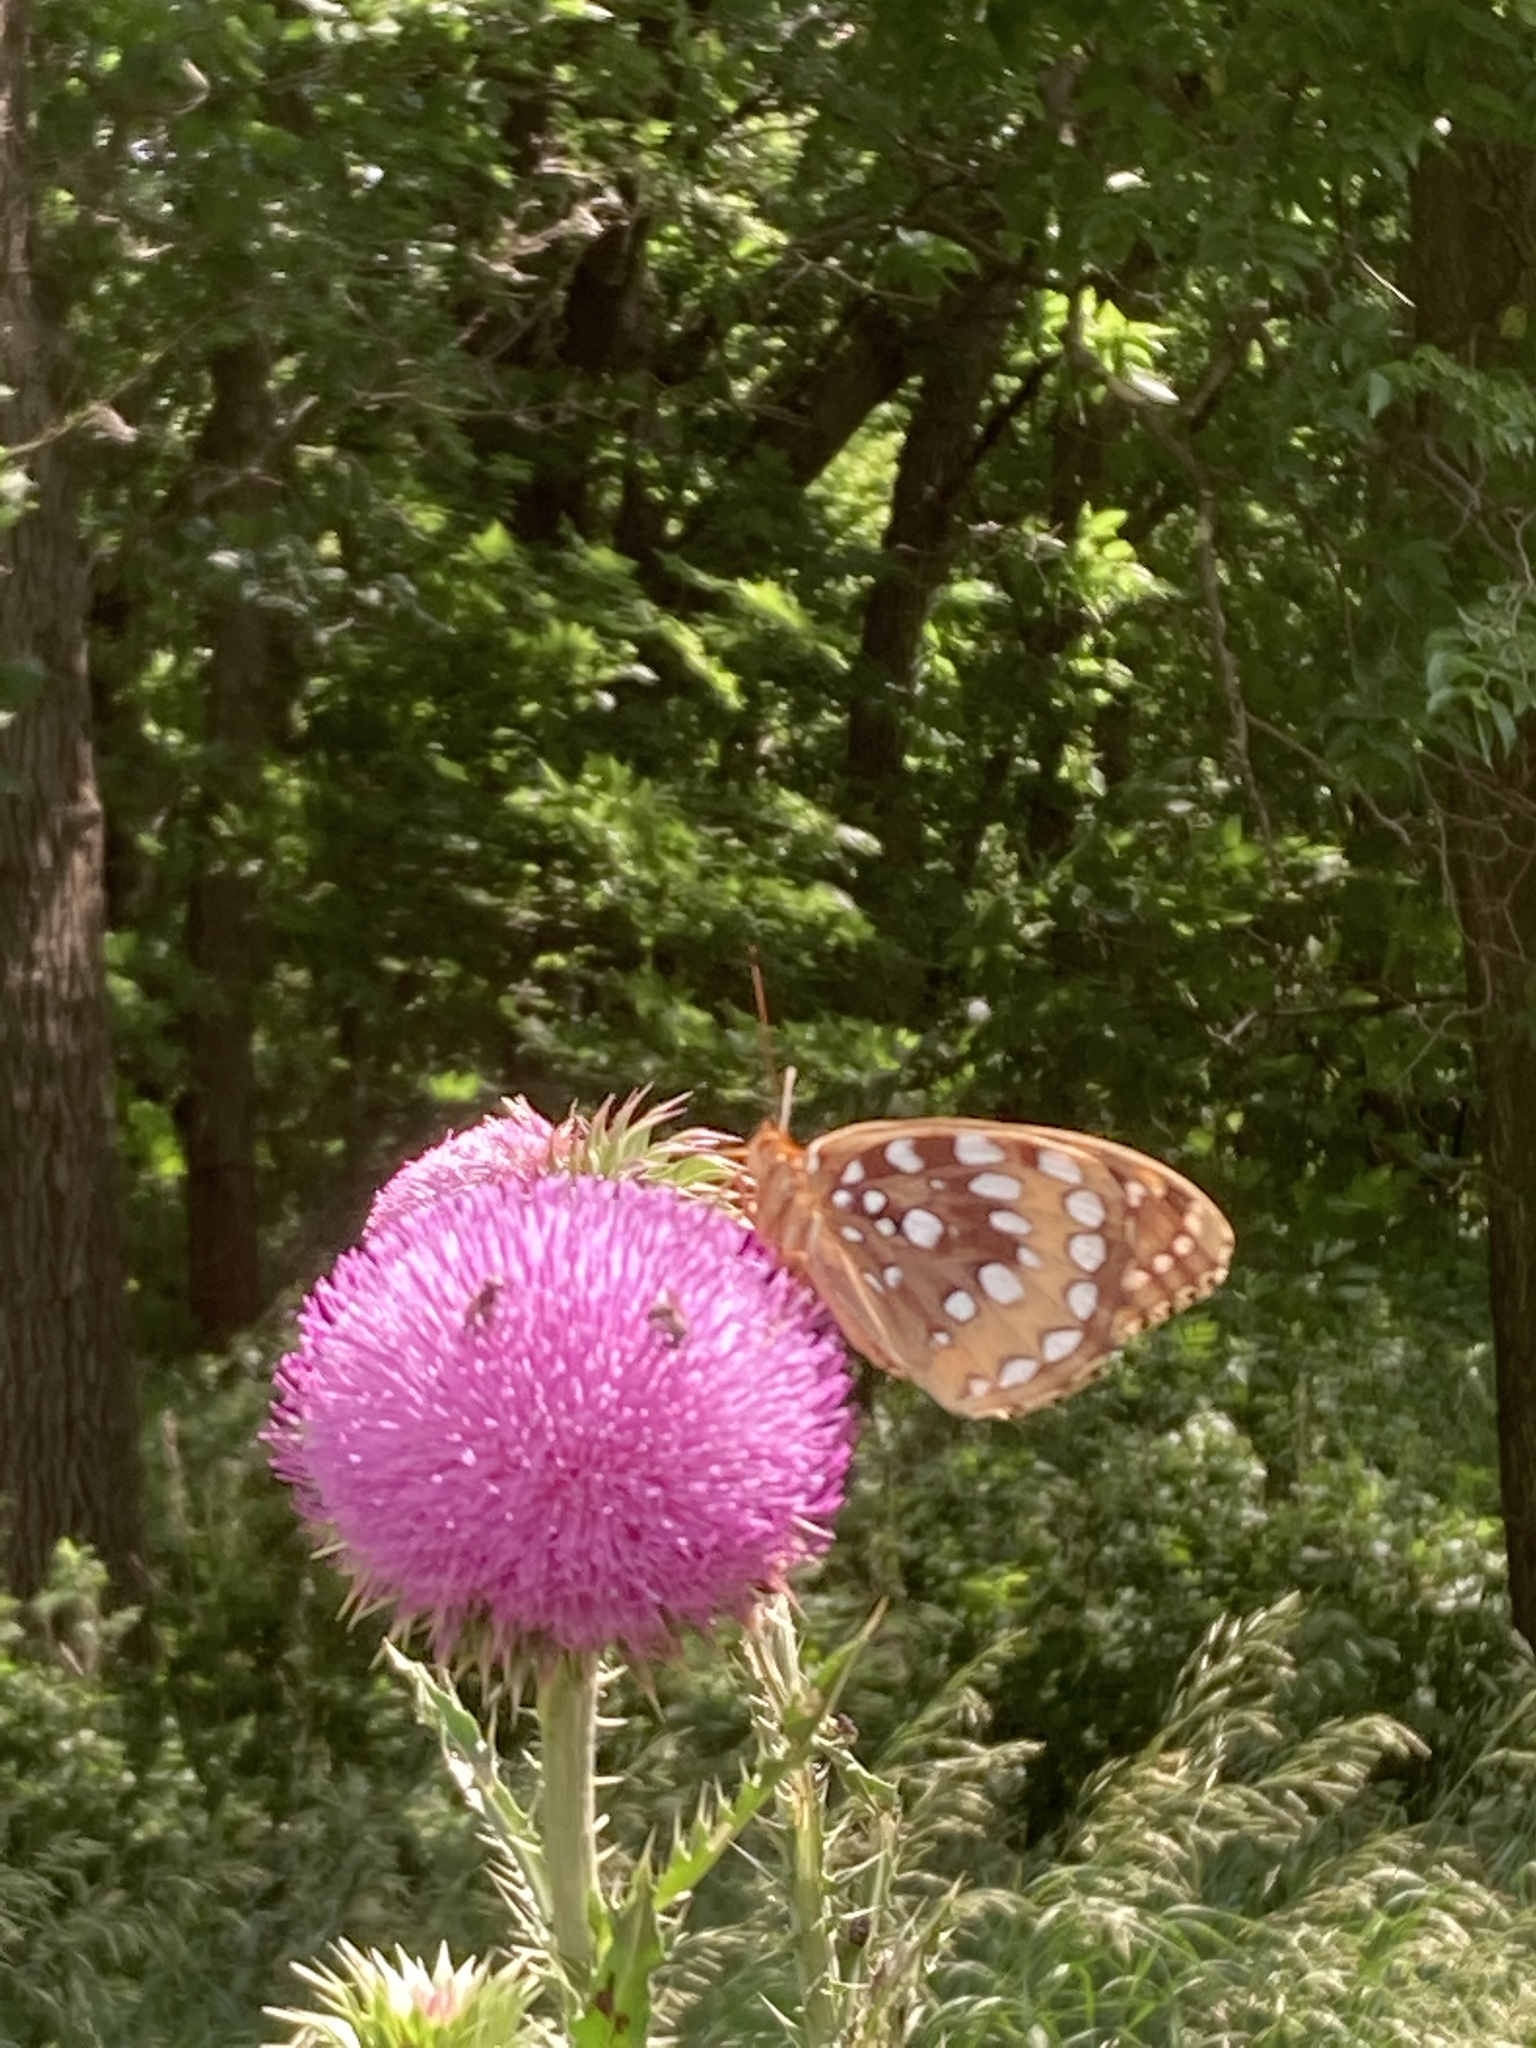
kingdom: Animalia
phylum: Arthropoda
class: Insecta
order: Lepidoptera
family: Nymphalidae
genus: Speyeria
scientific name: Speyeria cybele
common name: Great spangled fritillary
